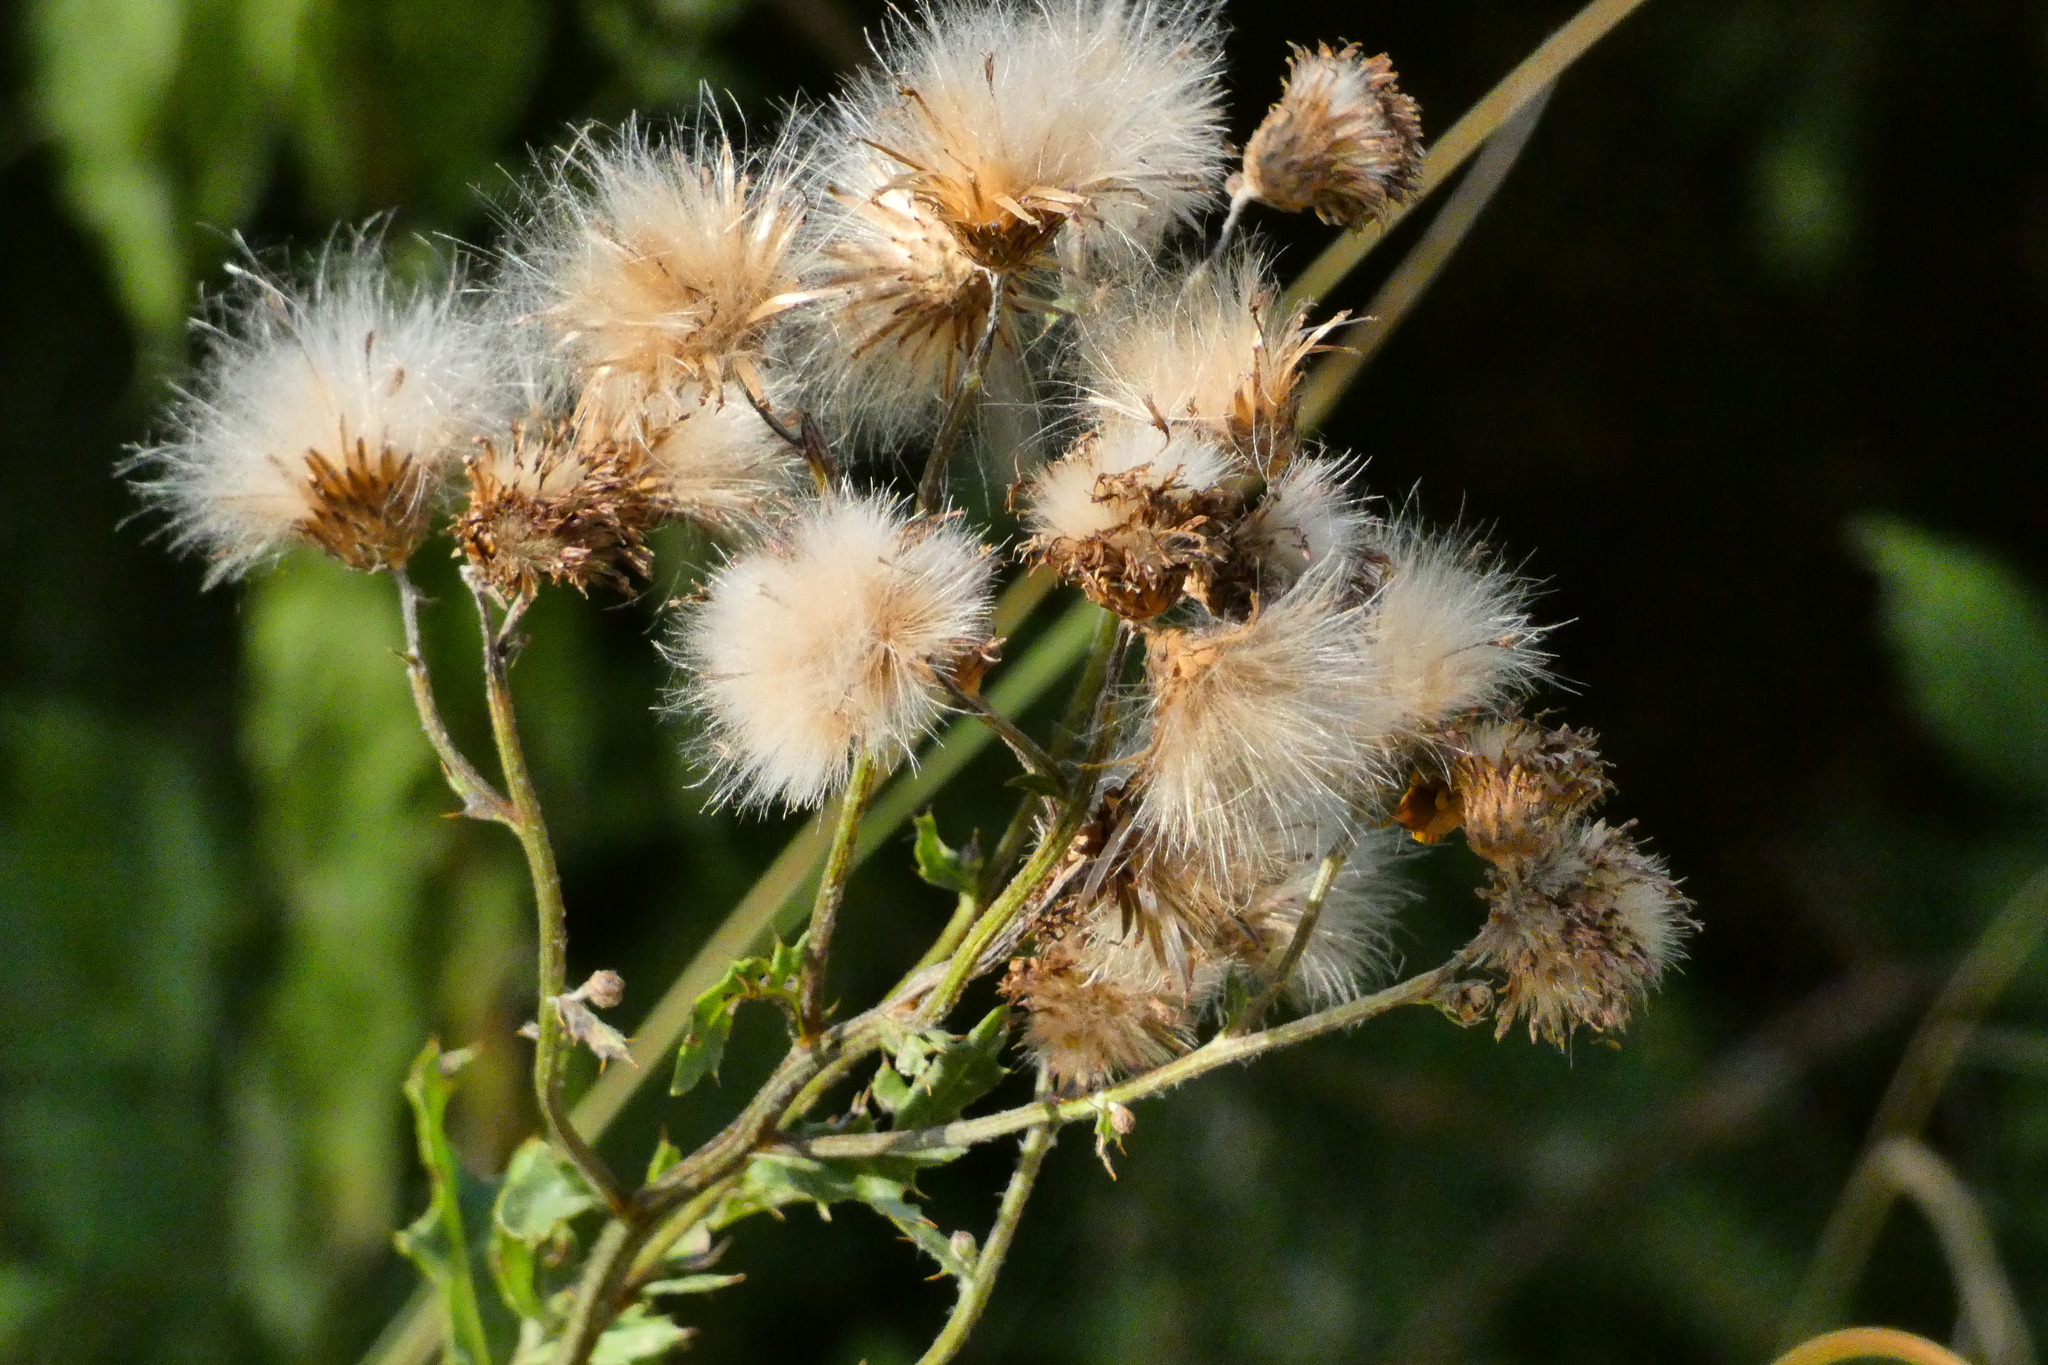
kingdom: Plantae
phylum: Tracheophyta
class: Magnoliopsida
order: Asterales
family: Asteraceae
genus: Cirsium
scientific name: Cirsium arvense
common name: Creeping thistle
